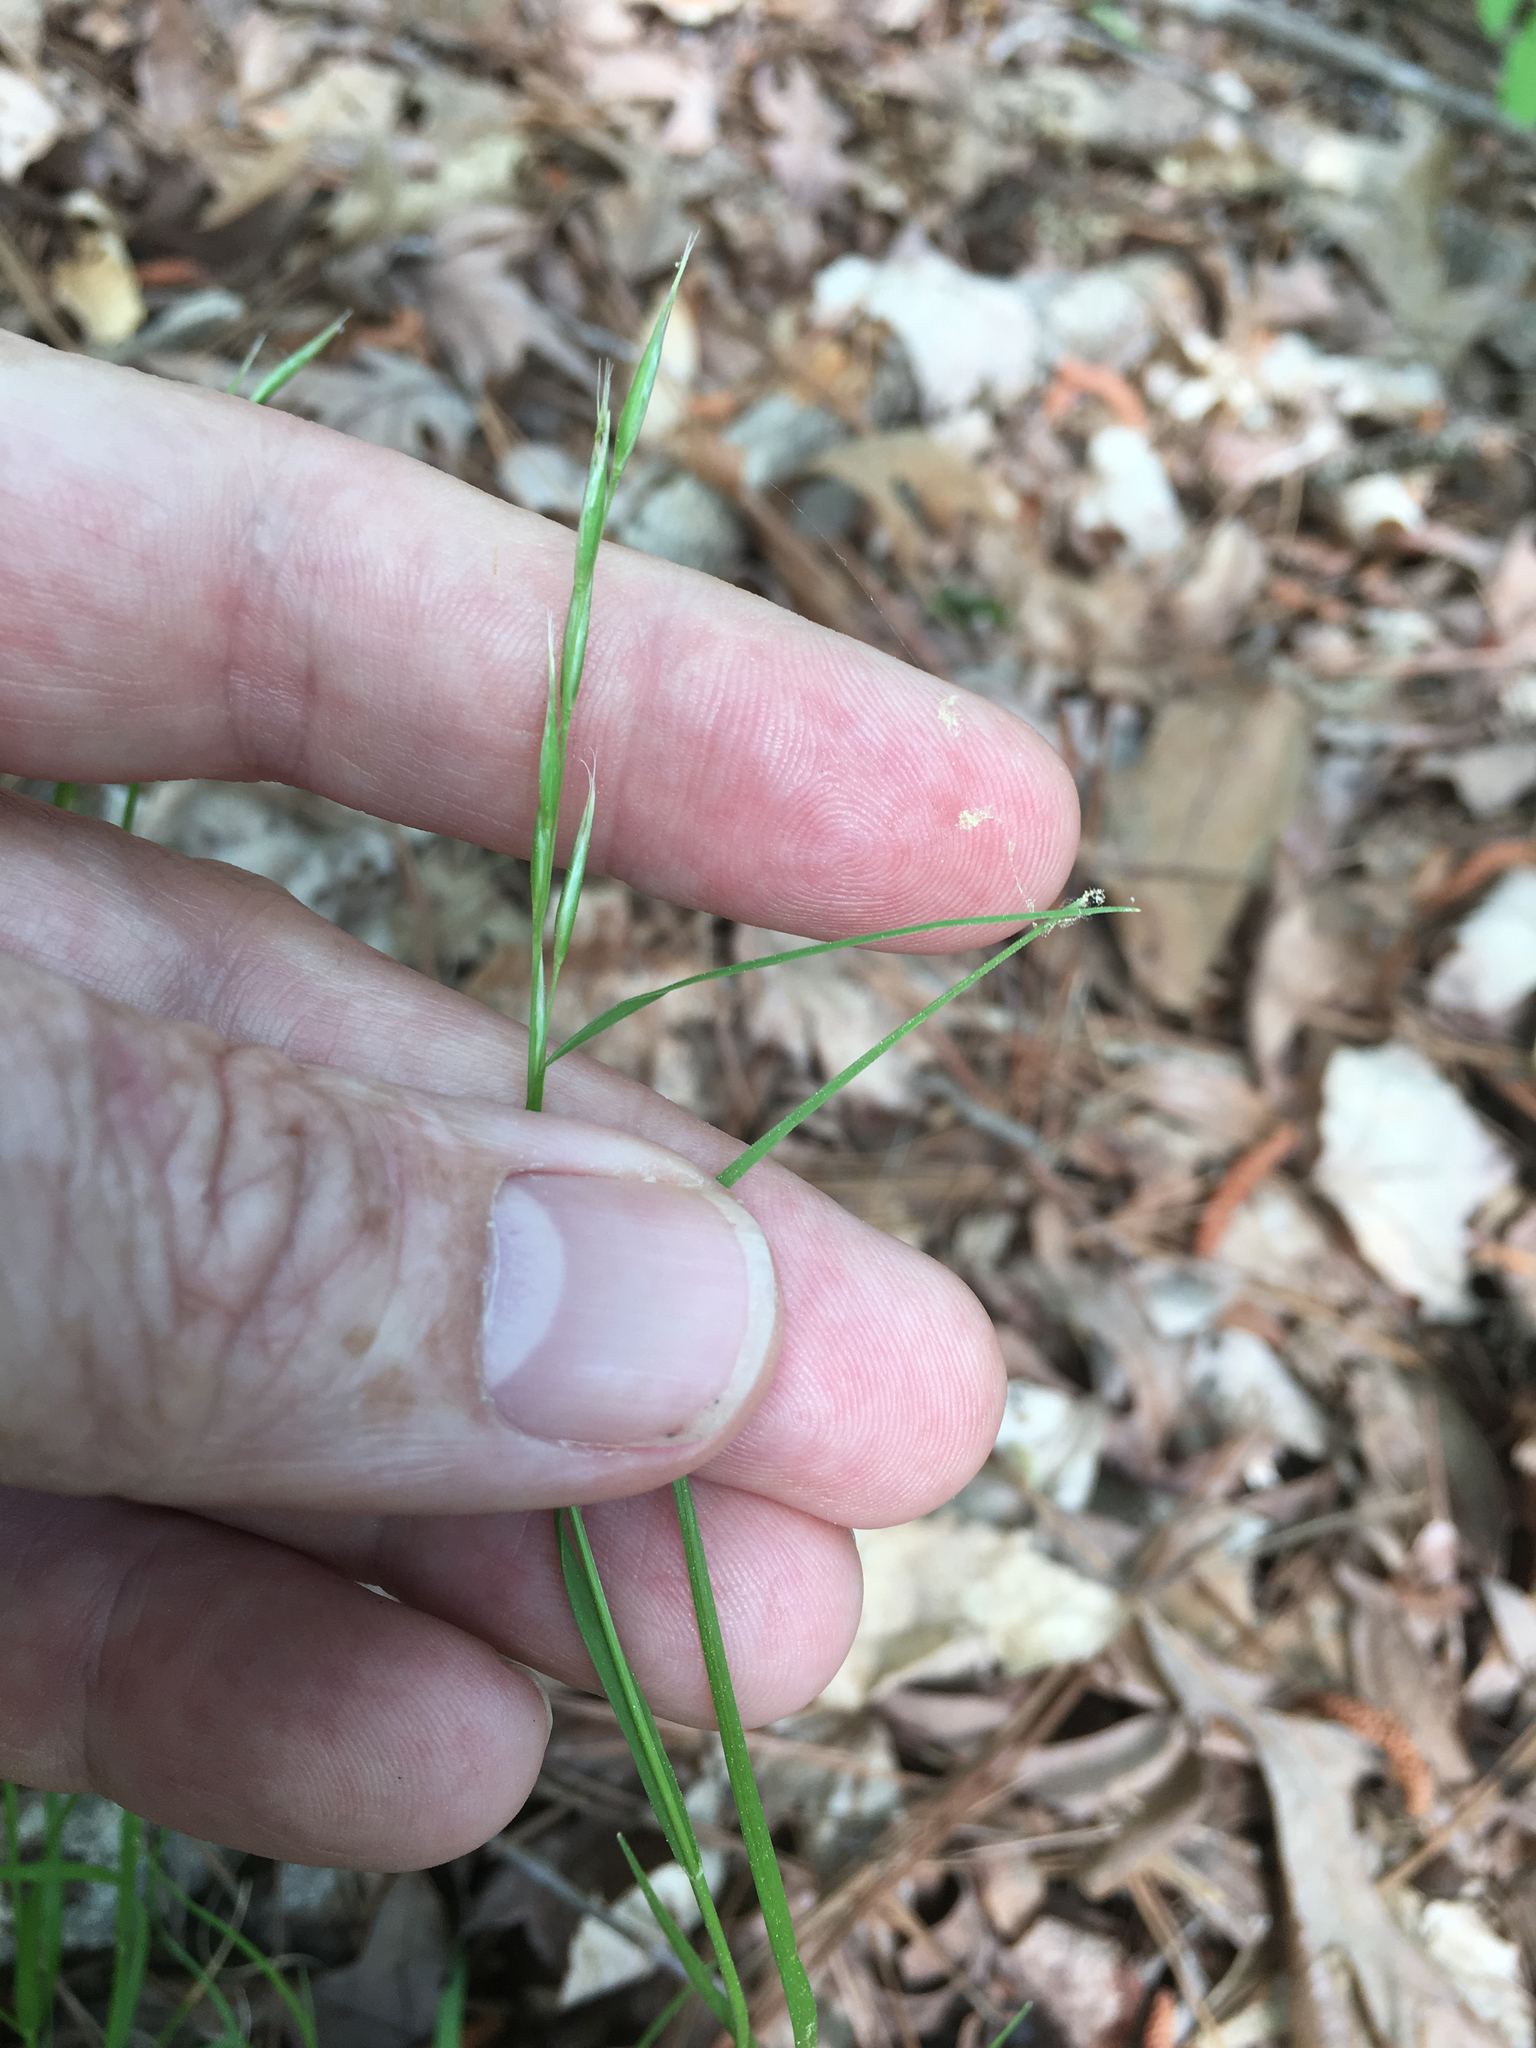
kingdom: Plantae
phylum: Tracheophyta
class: Liliopsida
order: Poales
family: Poaceae
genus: Danthonia
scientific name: Danthonia spicata
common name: Common wild oatgrass
